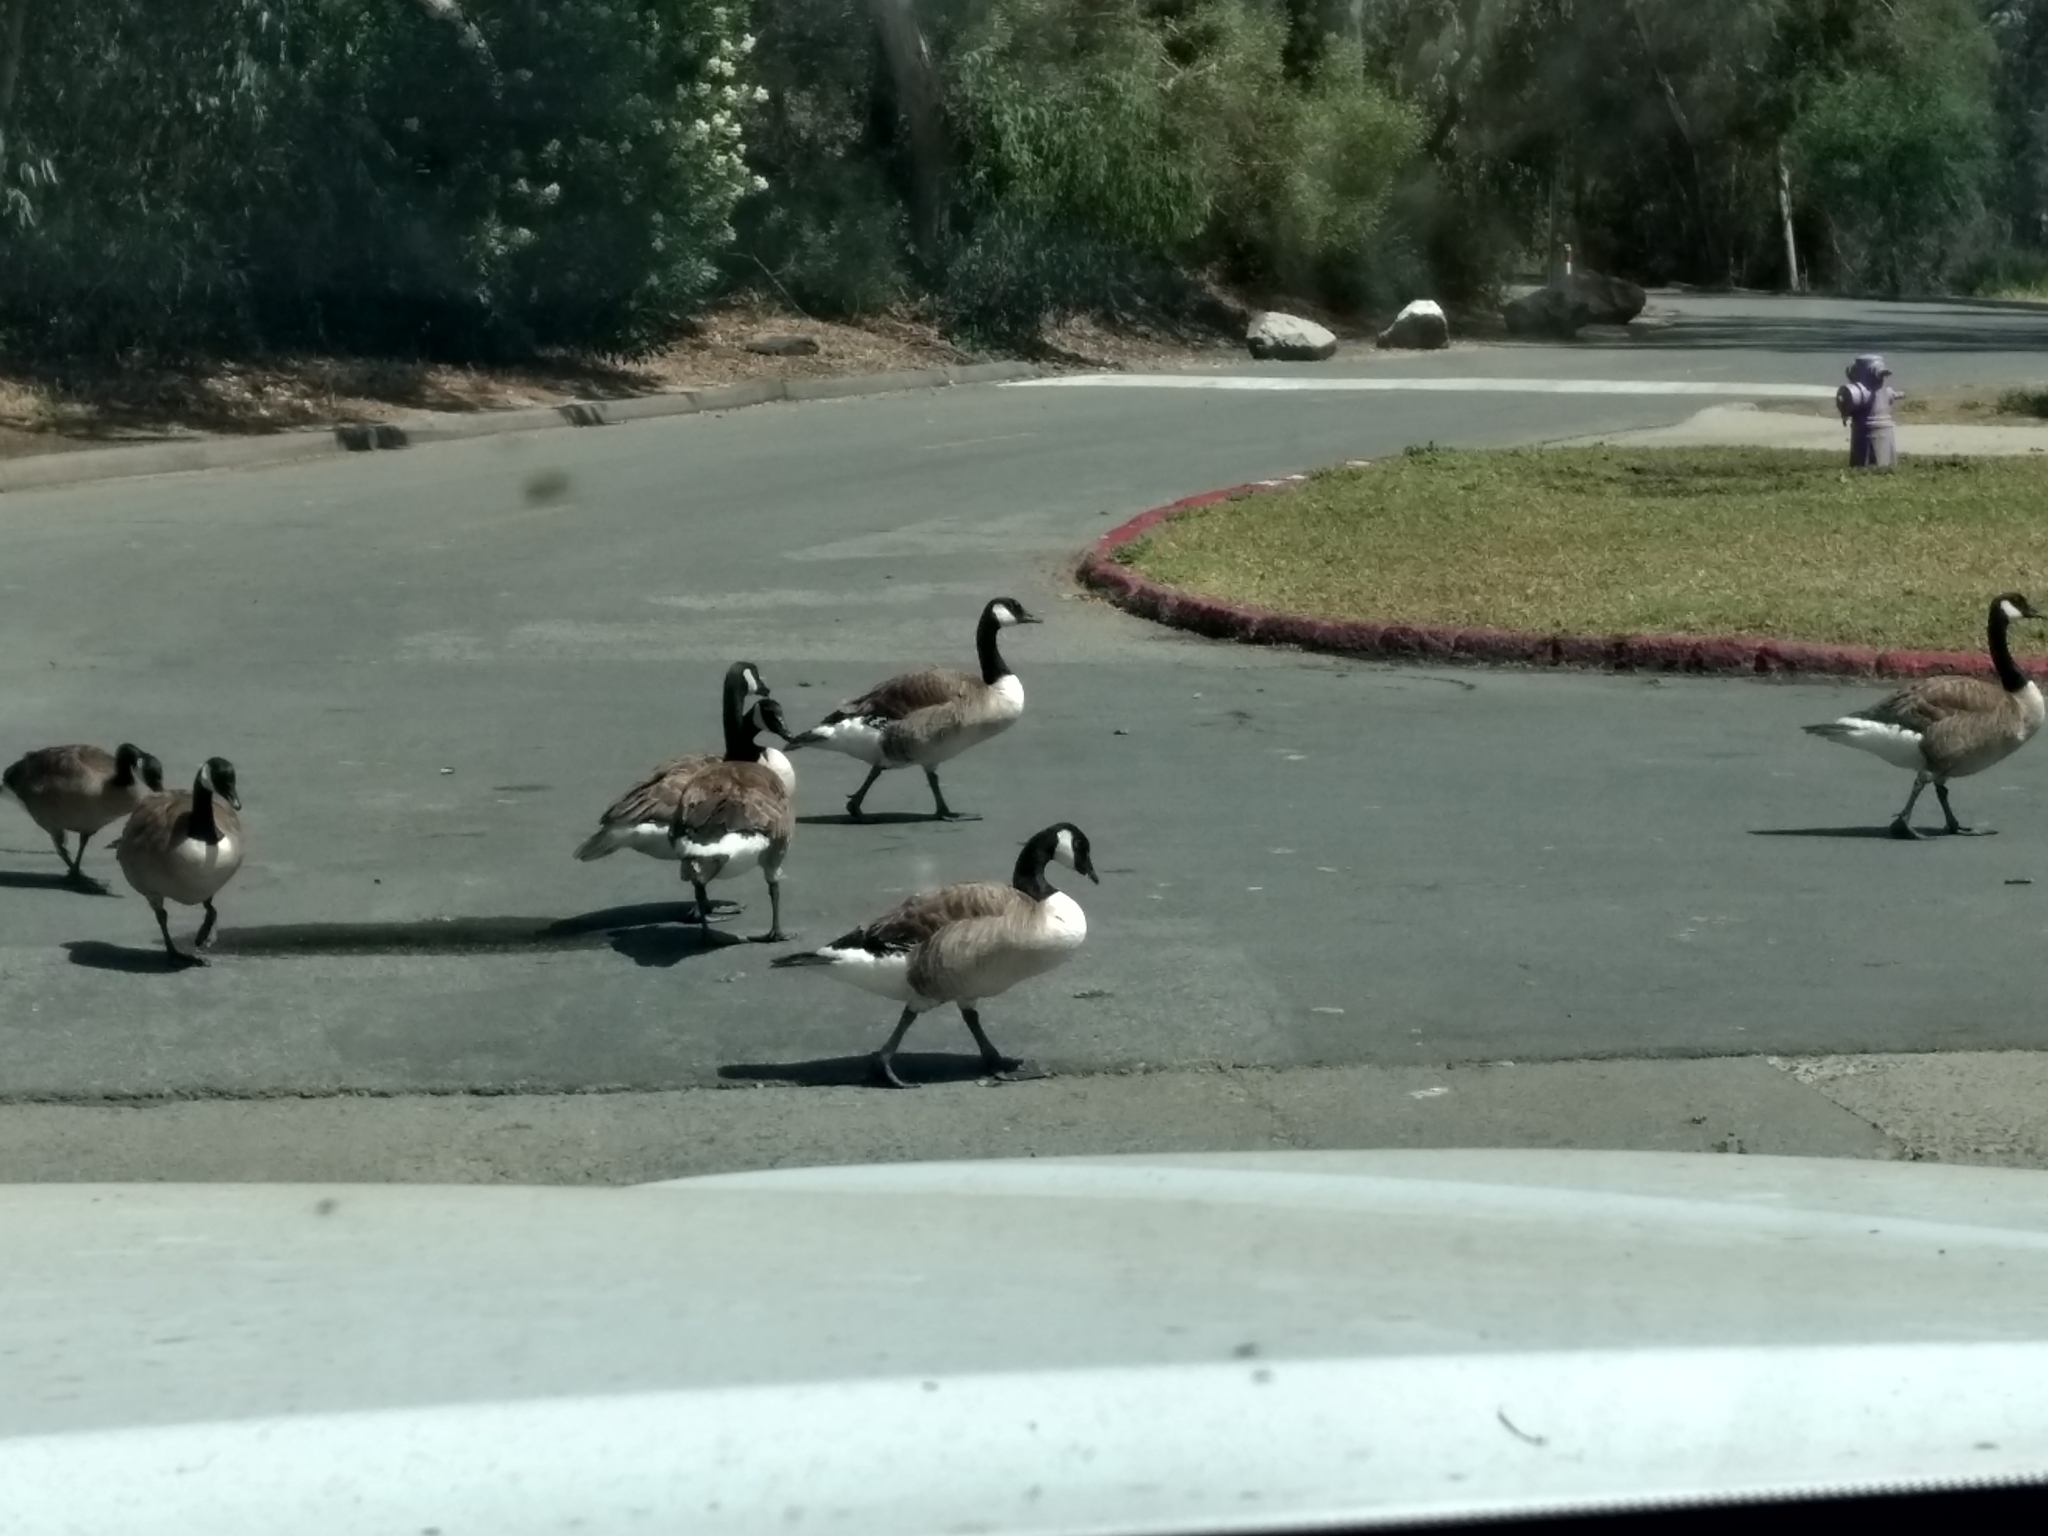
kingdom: Animalia
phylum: Chordata
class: Aves
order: Anseriformes
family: Anatidae
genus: Branta
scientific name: Branta canadensis
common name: Canada goose
